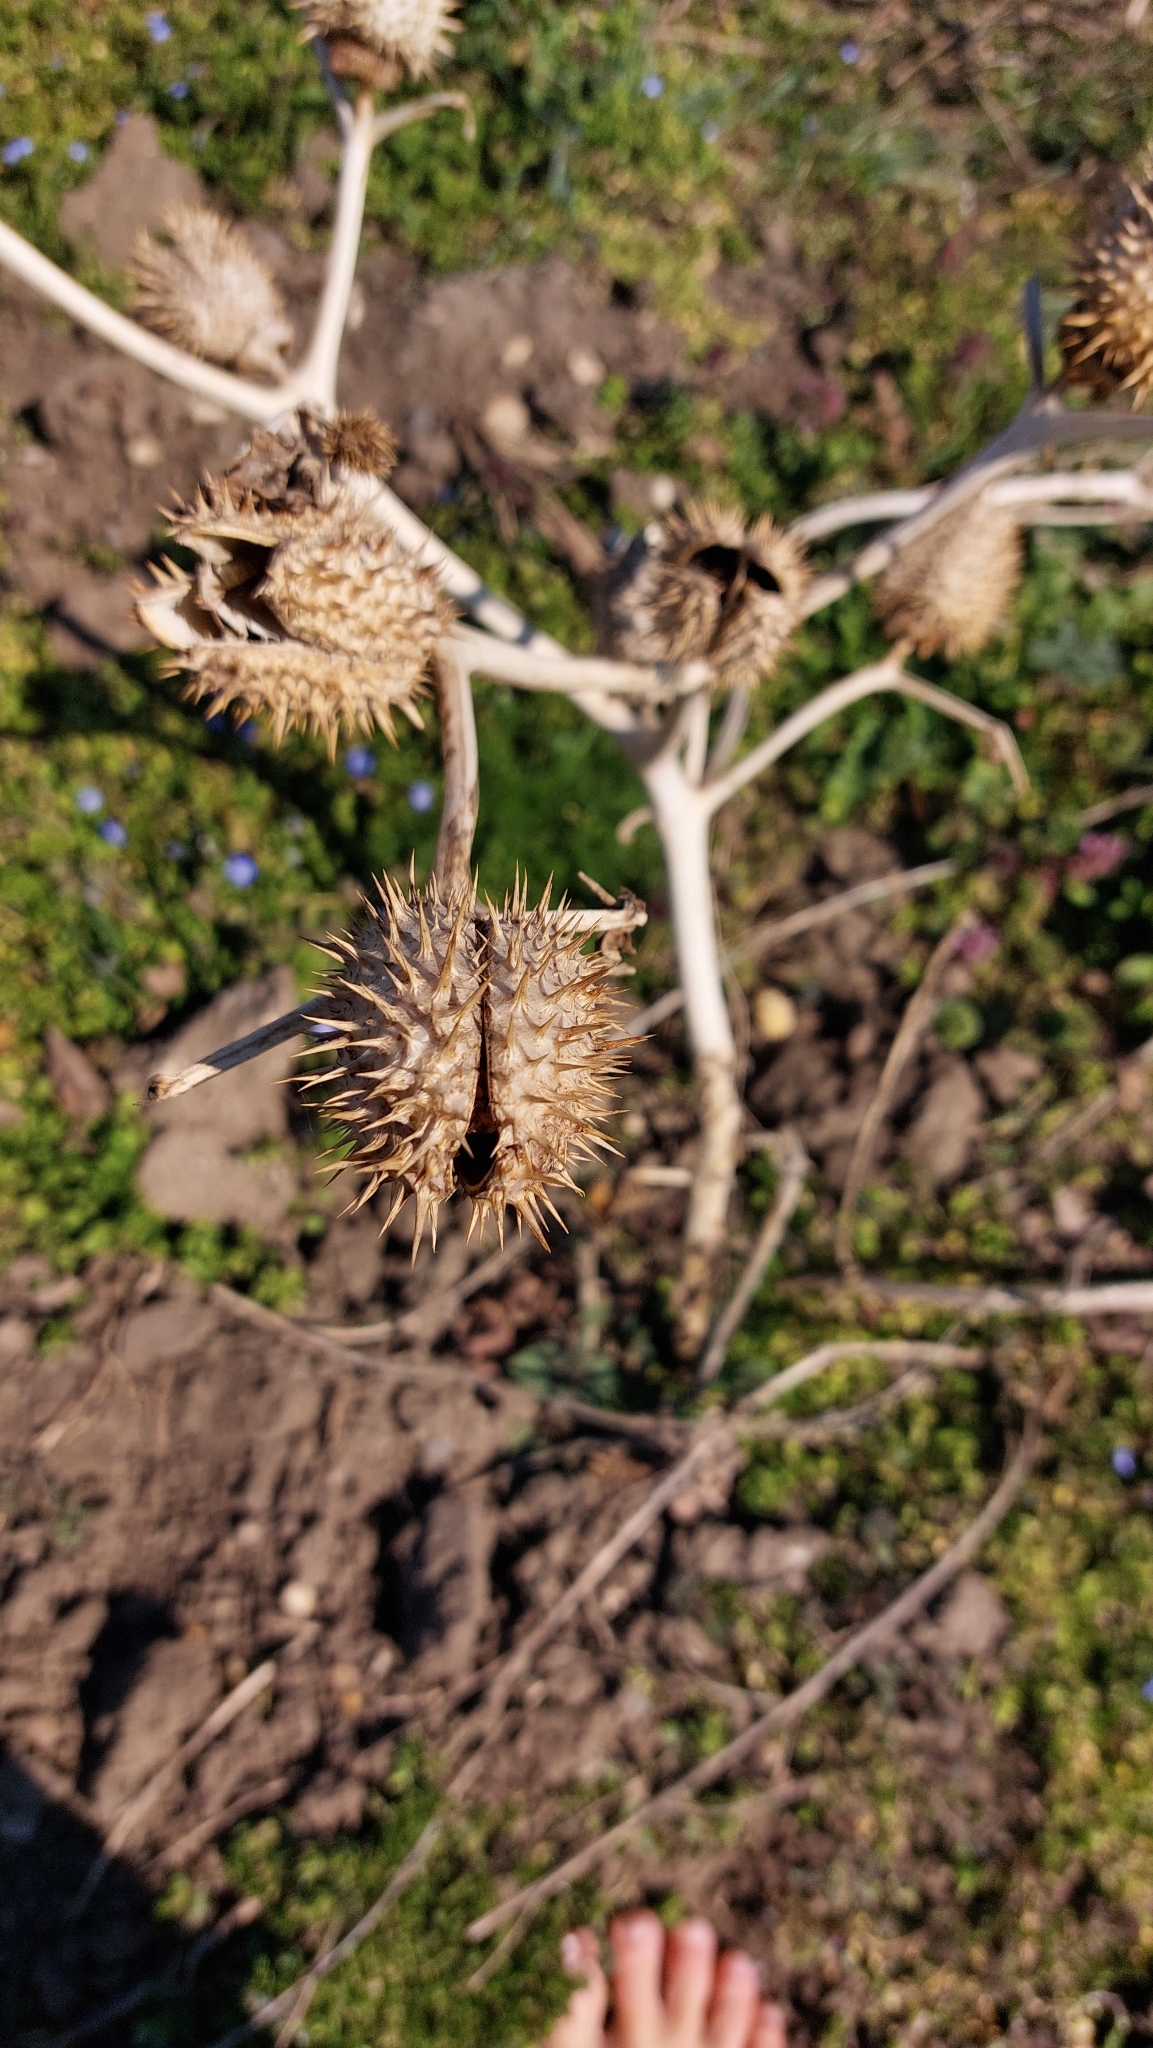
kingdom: Plantae
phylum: Tracheophyta
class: Magnoliopsida
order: Solanales
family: Solanaceae
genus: Datura
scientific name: Datura stramonium
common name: Thorn-apple
